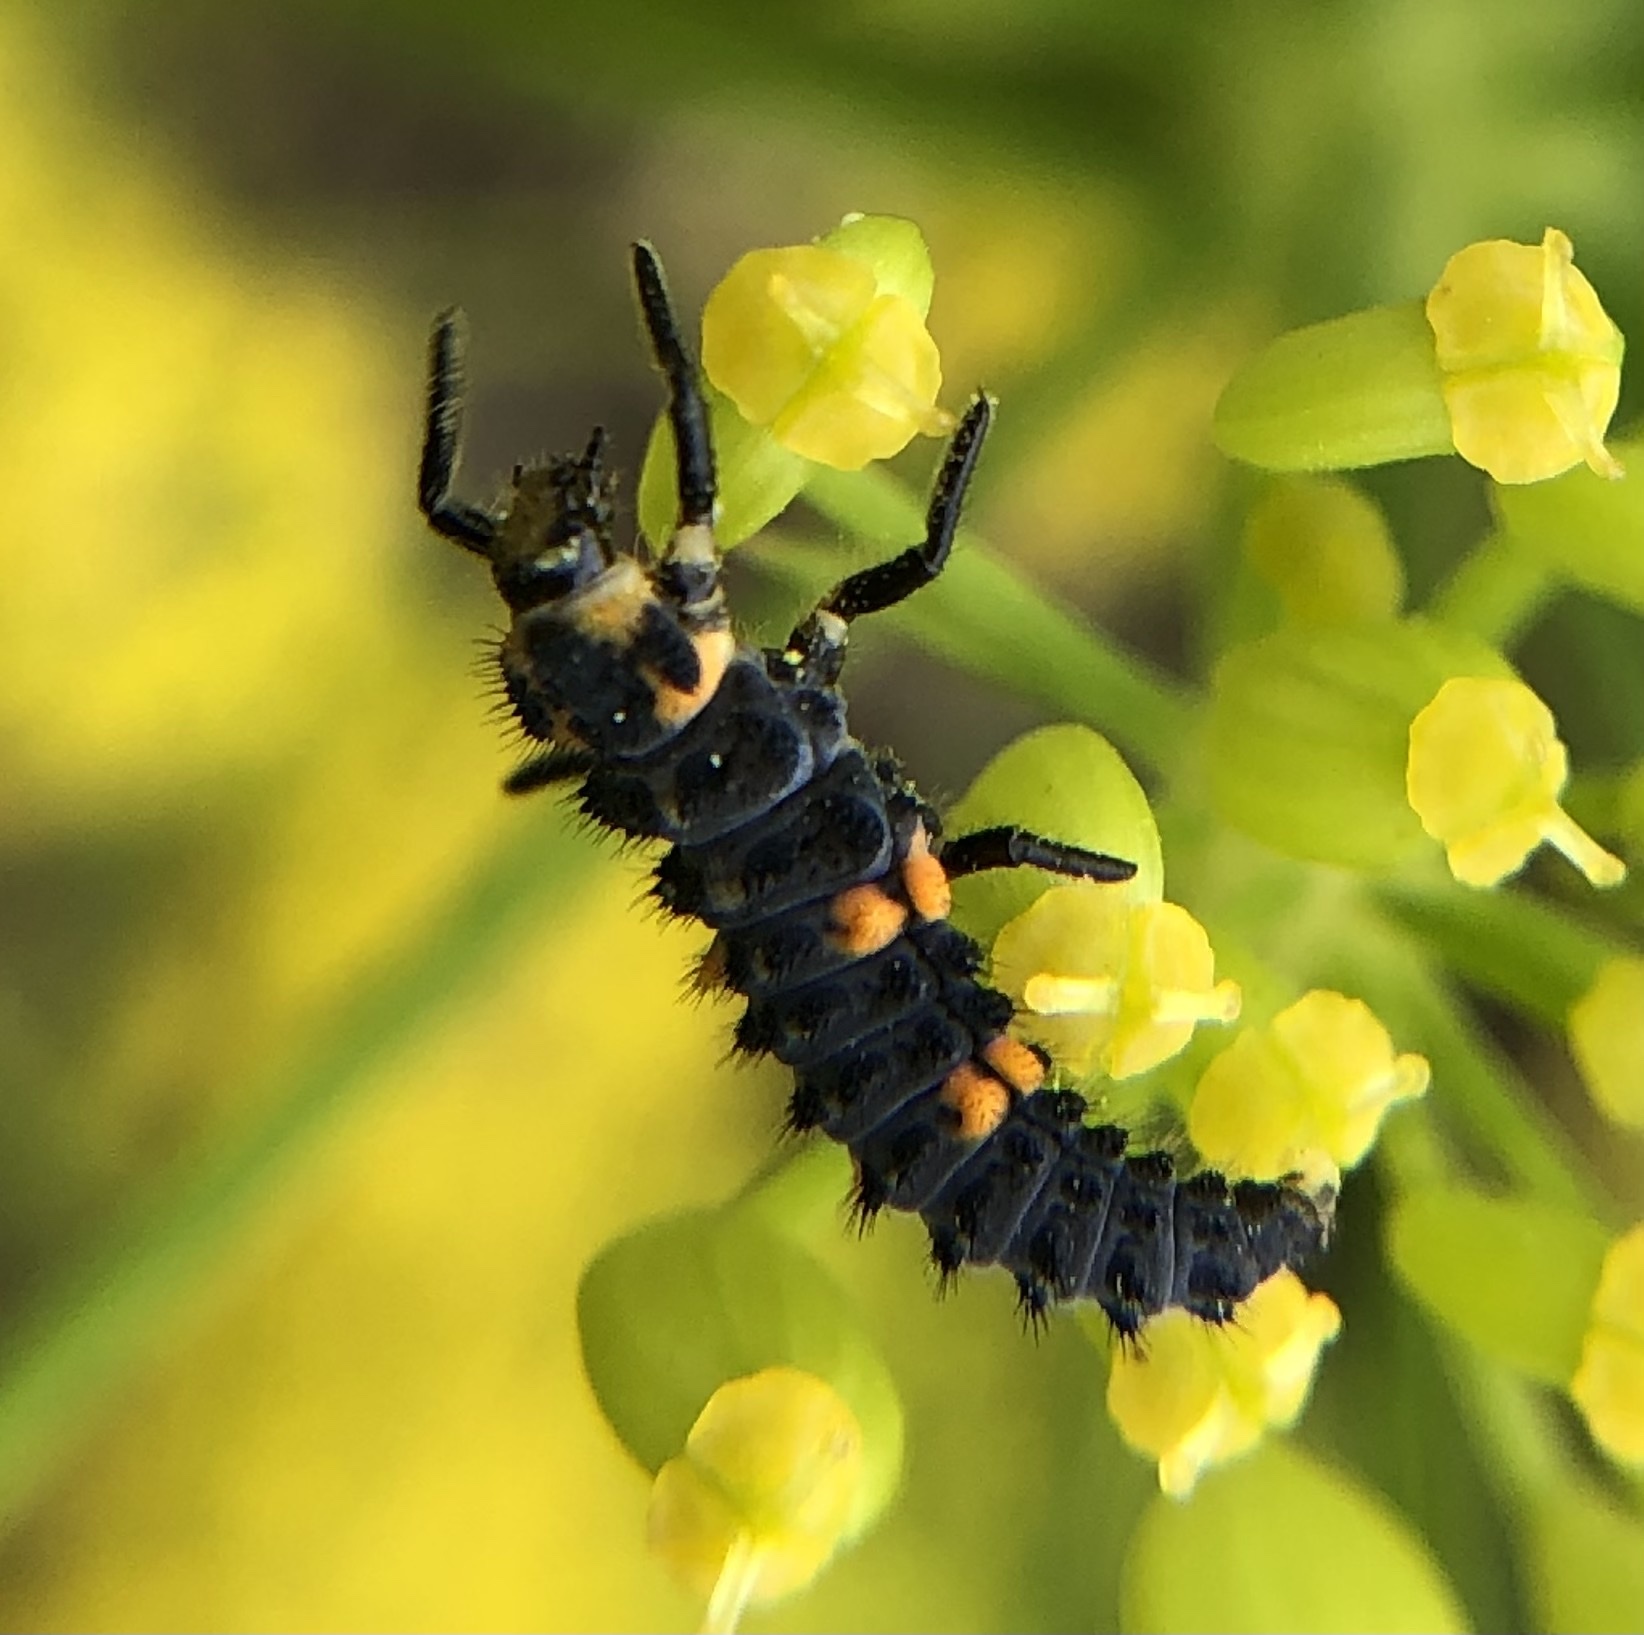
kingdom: Animalia
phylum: Arthropoda
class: Insecta
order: Coleoptera
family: Coccinellidae
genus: Coccinella
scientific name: Coccinella septempunctata
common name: Sevenspotted lady beetle
